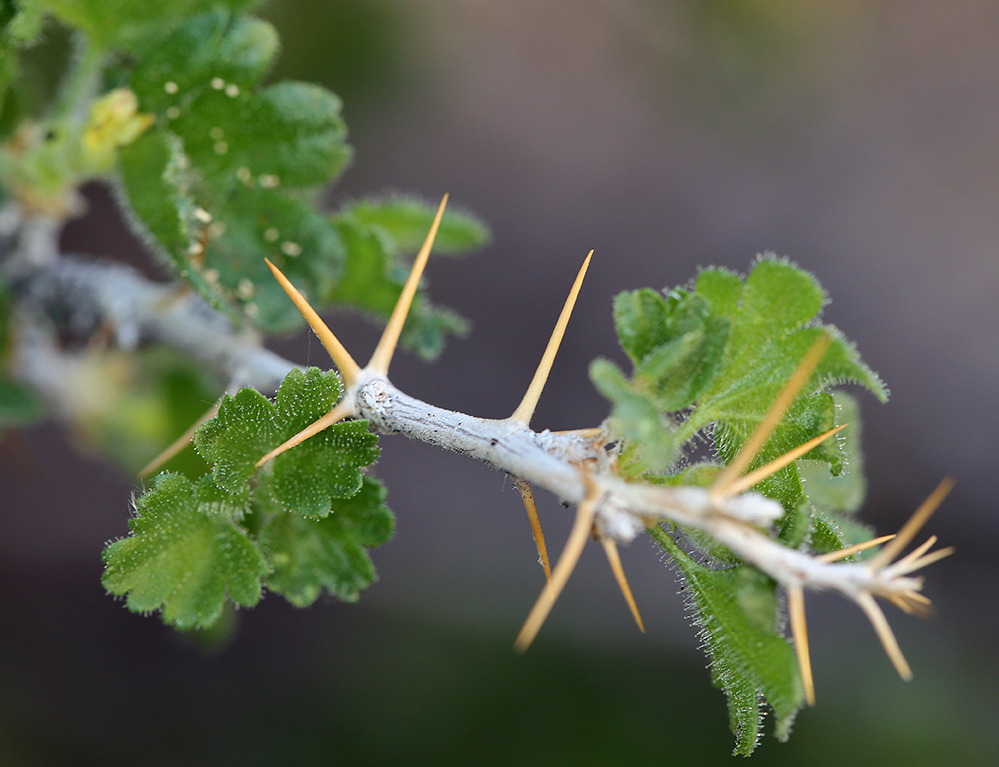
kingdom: Plantae
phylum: Tracheophyta
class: Magnoliopsida
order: Saxifragales
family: Grossulariaceae
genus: Ribes
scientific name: Ribes velutinum
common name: Desert gooseberry
